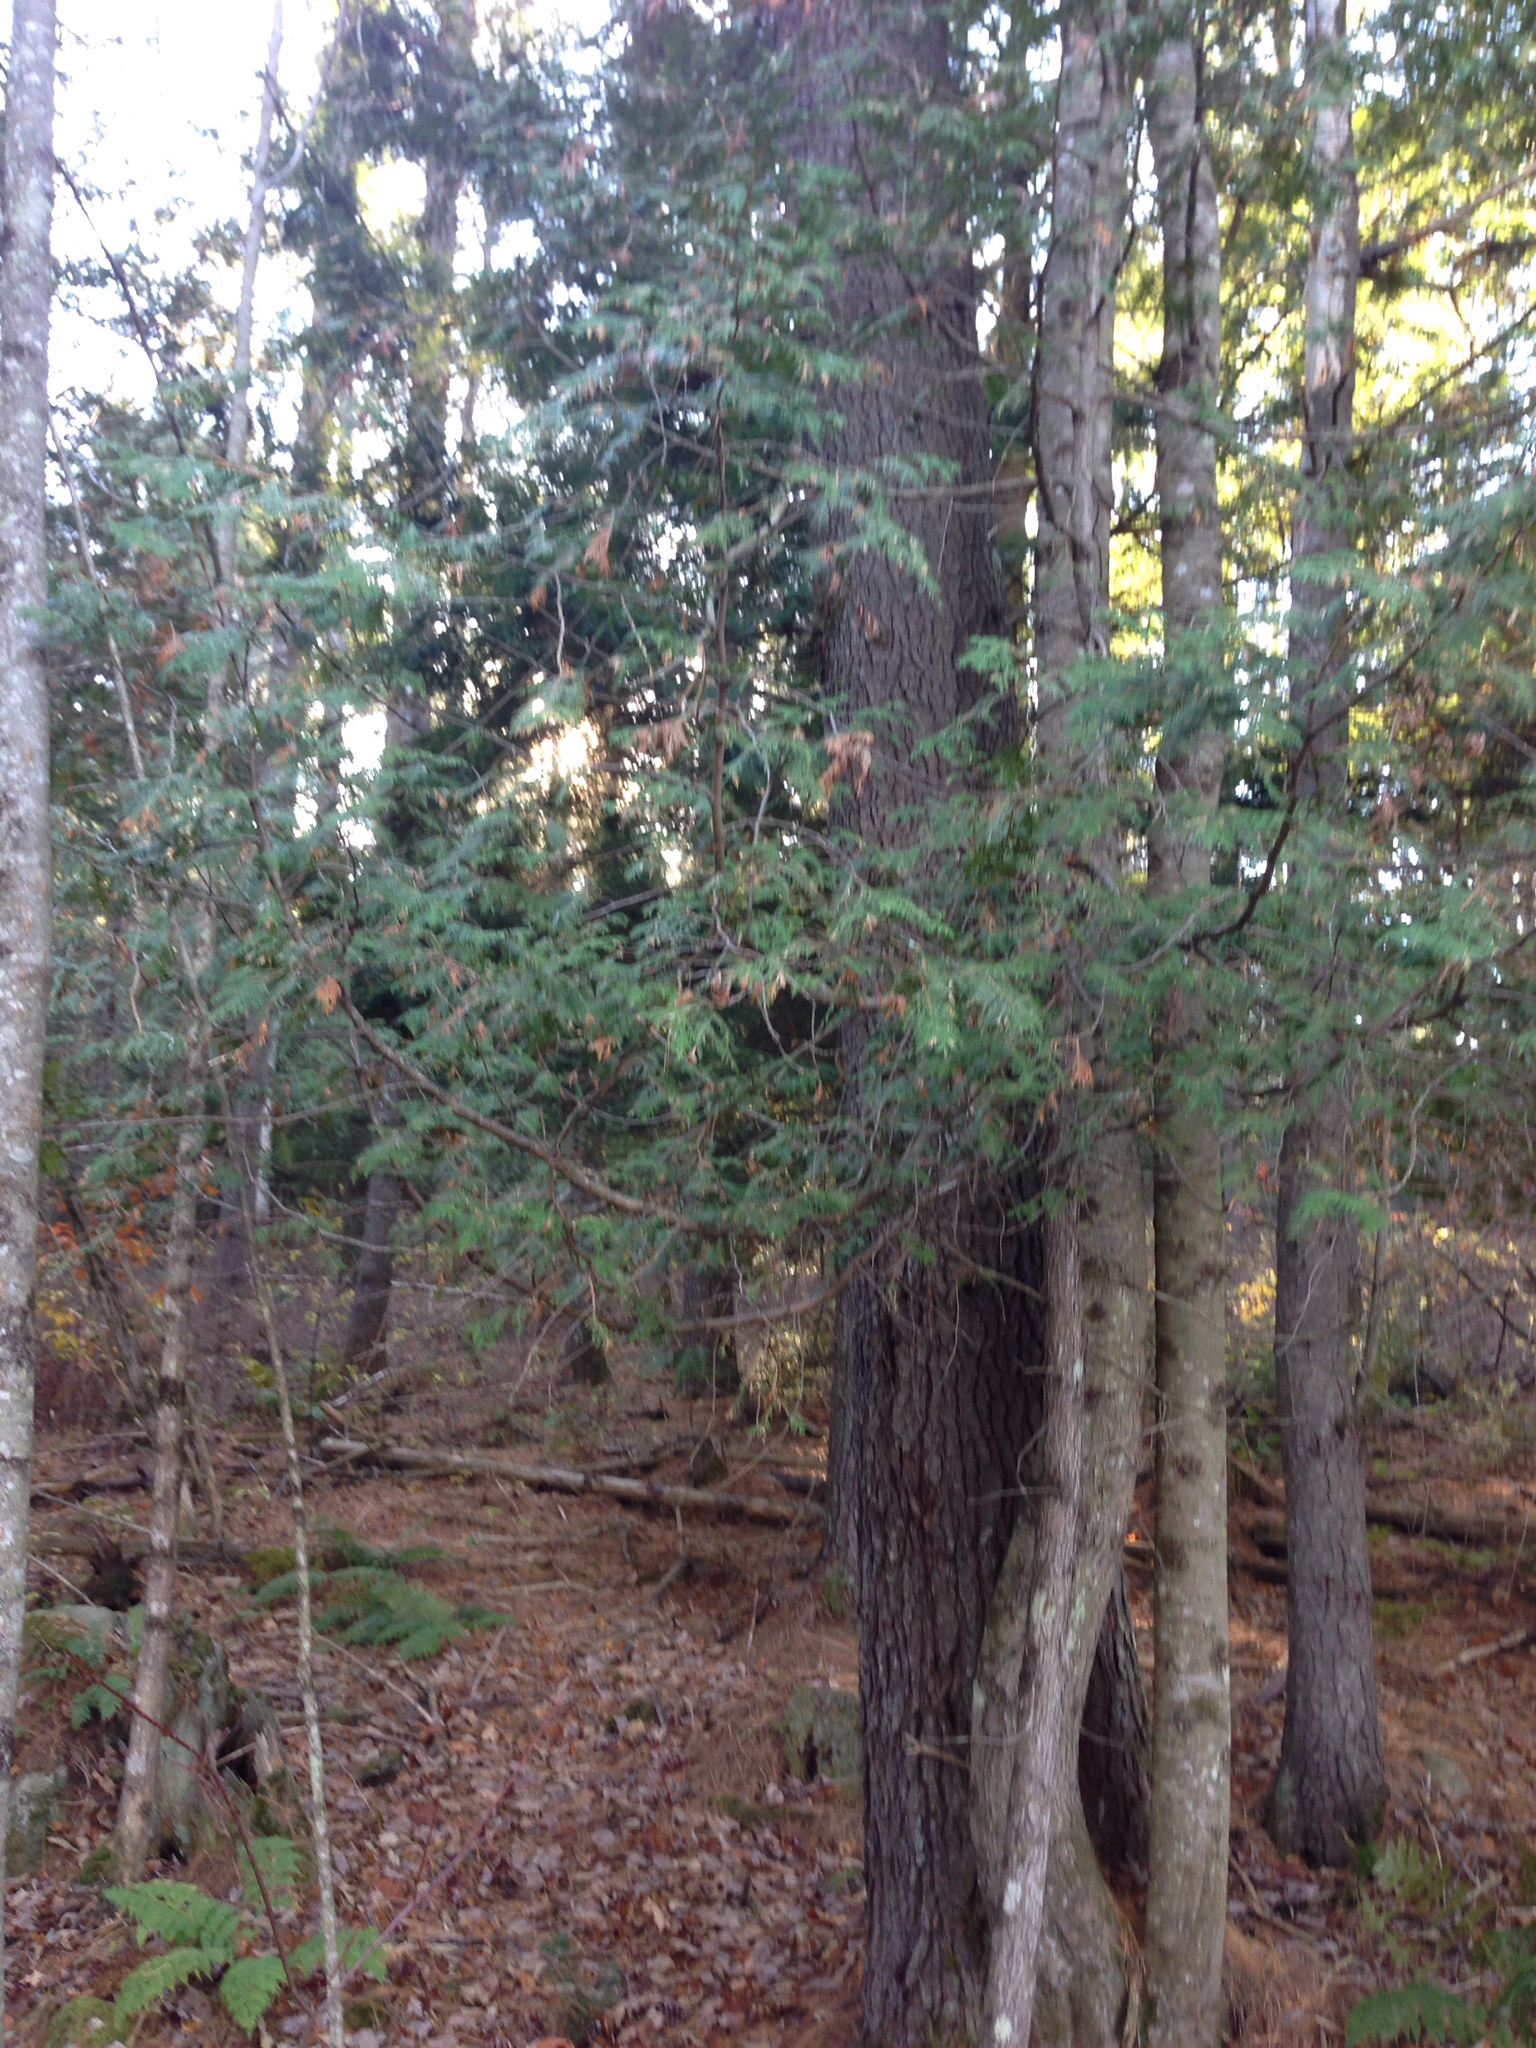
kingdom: Plantae
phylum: Tracheophyta
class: Pinopsida
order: Pinales
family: Cupressaceae
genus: Thuja
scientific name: Thuja occidentalis
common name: Northern white-cedar
